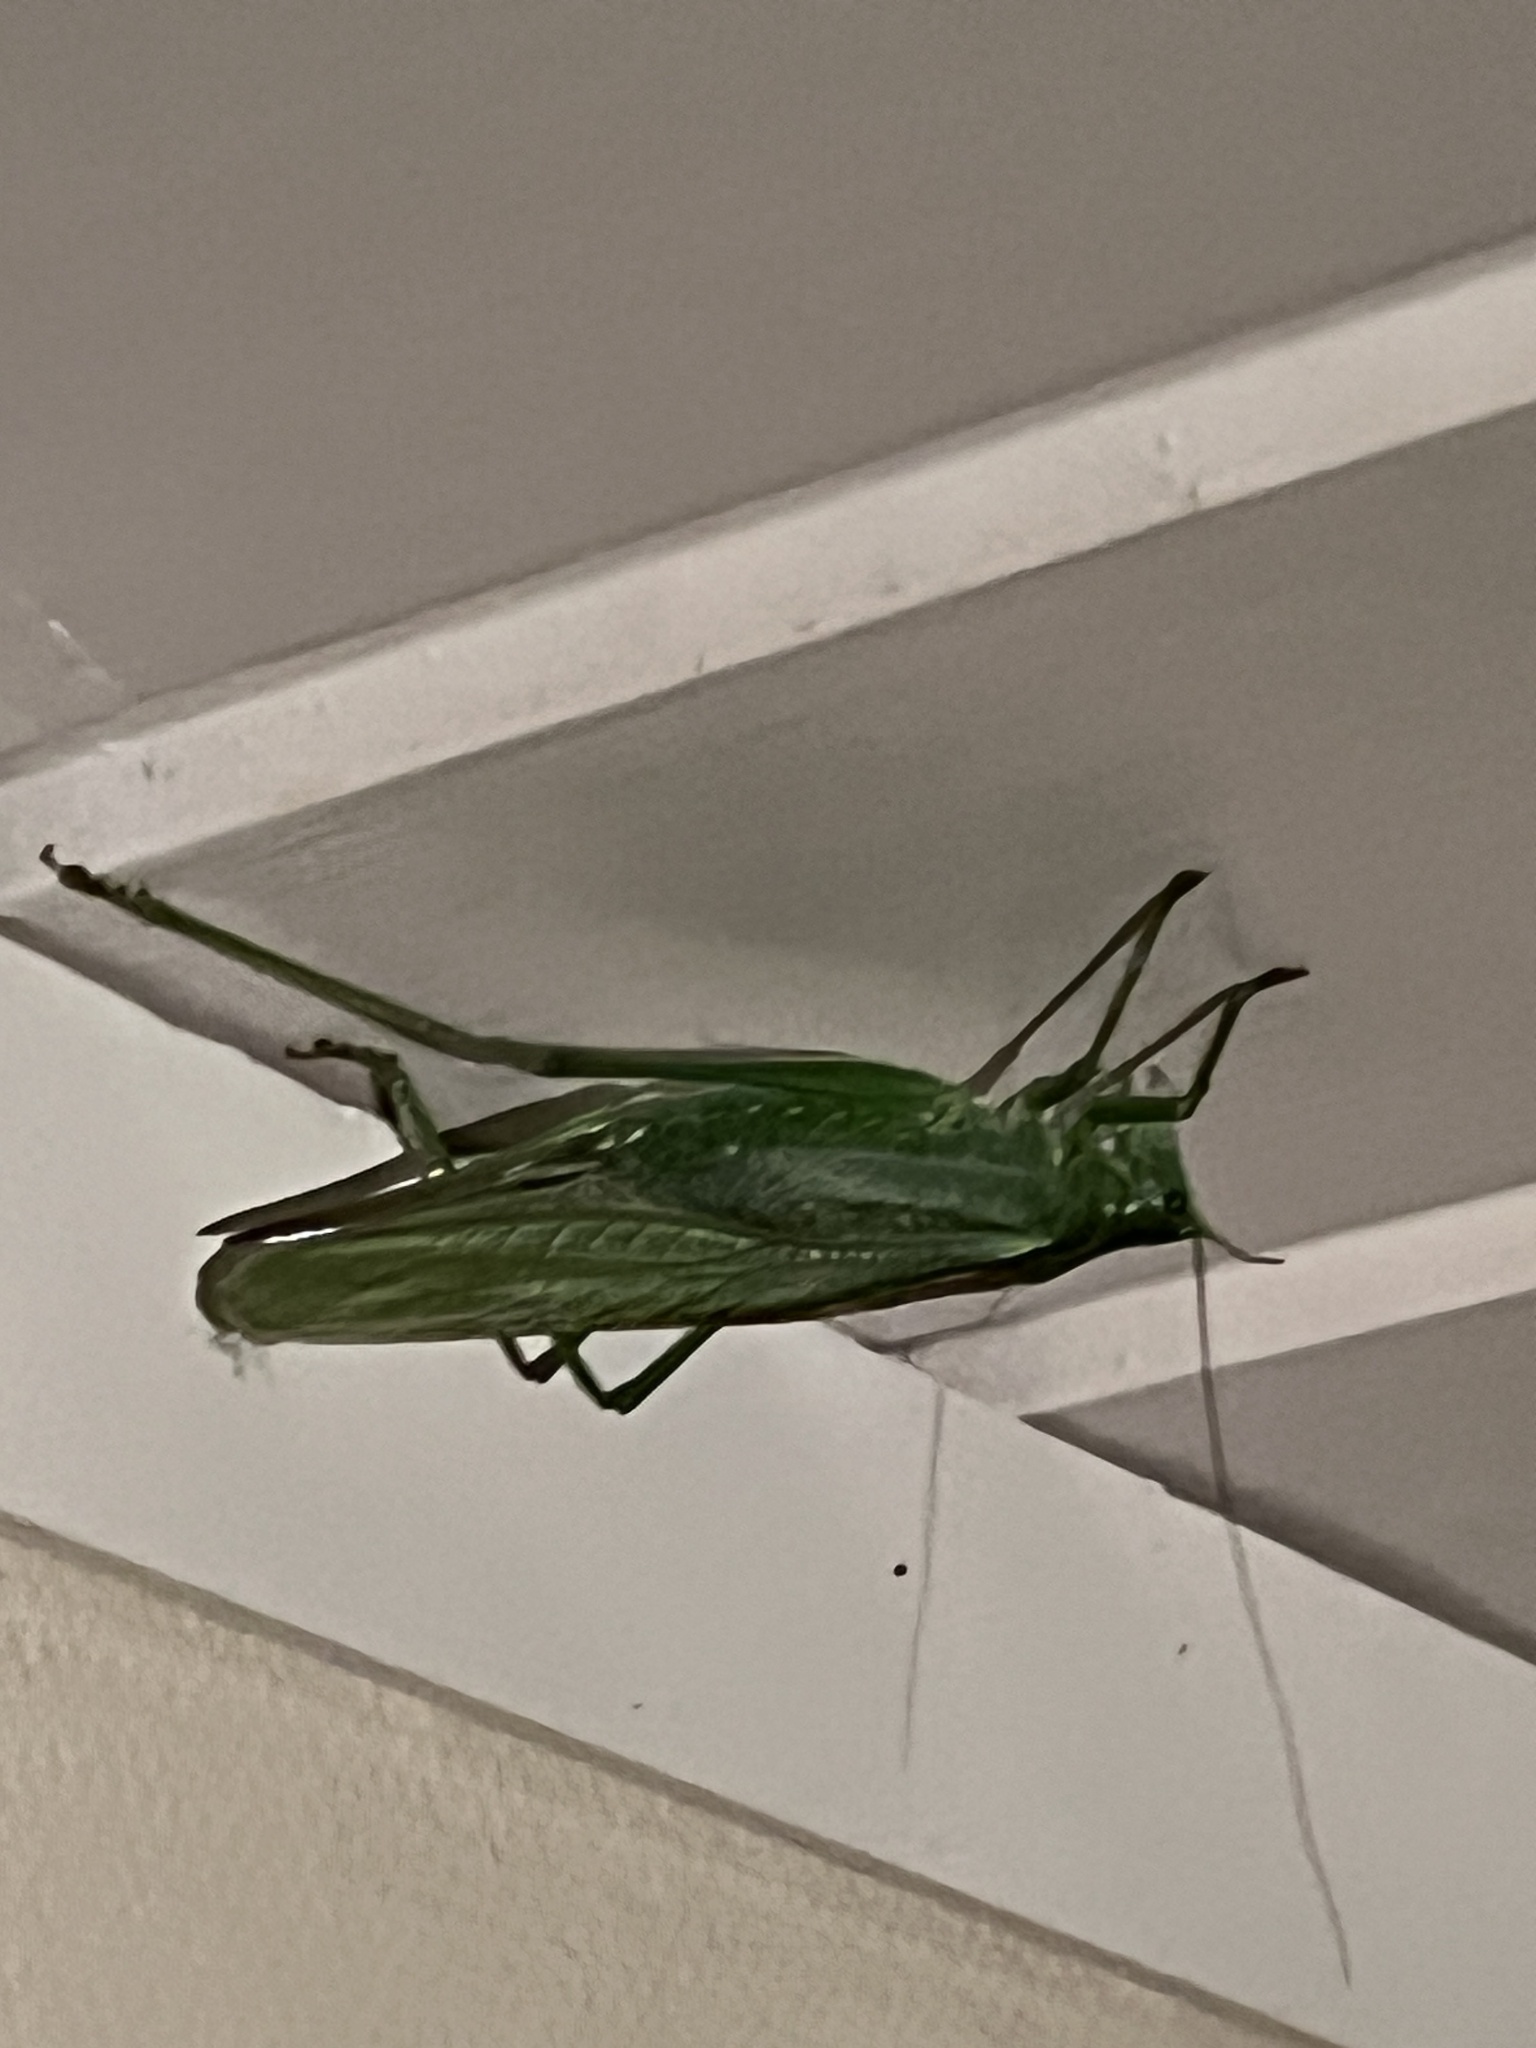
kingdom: Animalia
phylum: Arthropoda
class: Insecta
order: Orthoptera
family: Tettigoniidae
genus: Tettigonia
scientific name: Tettigonia viridissima
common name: Great green bush-cricket
